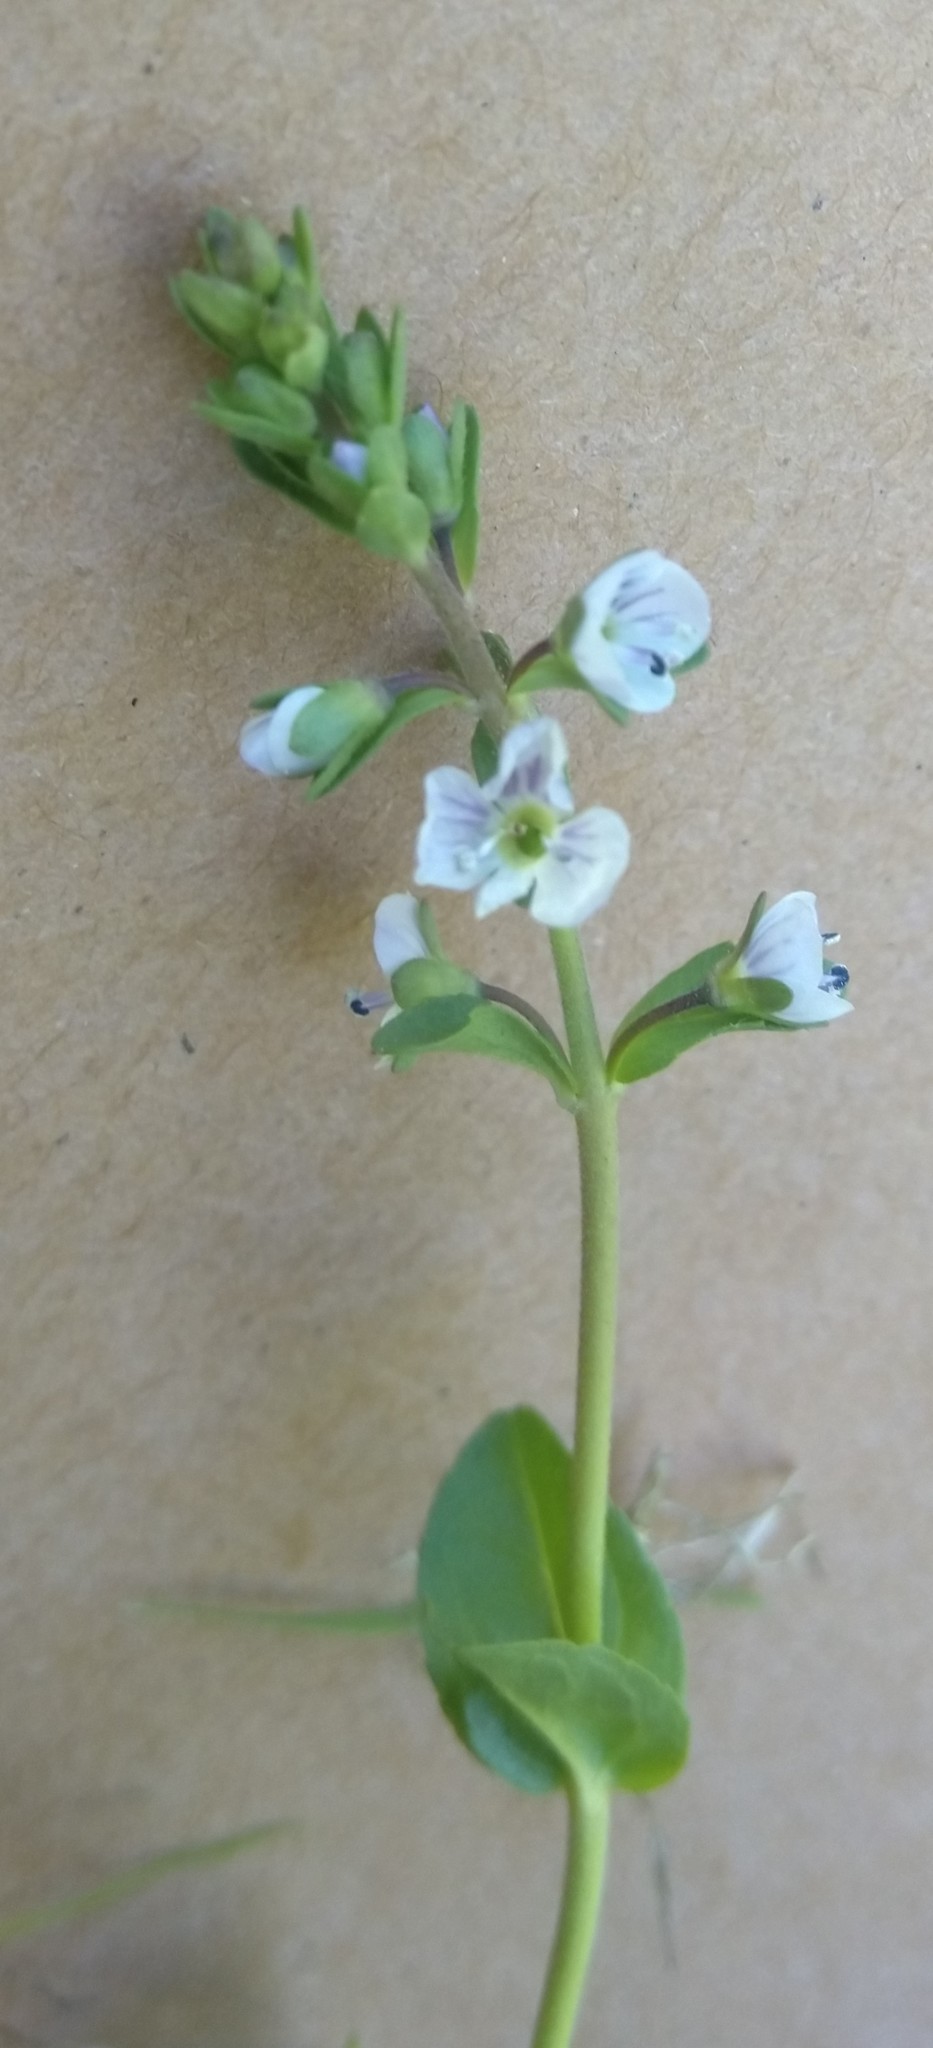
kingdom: Plantae
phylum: Tracheophyta
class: Magnoliopsida
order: Lamiales
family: Plantaginaceae
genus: Veronica
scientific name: Veronica serpyllifolia
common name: Thyme-leaved speedwell
